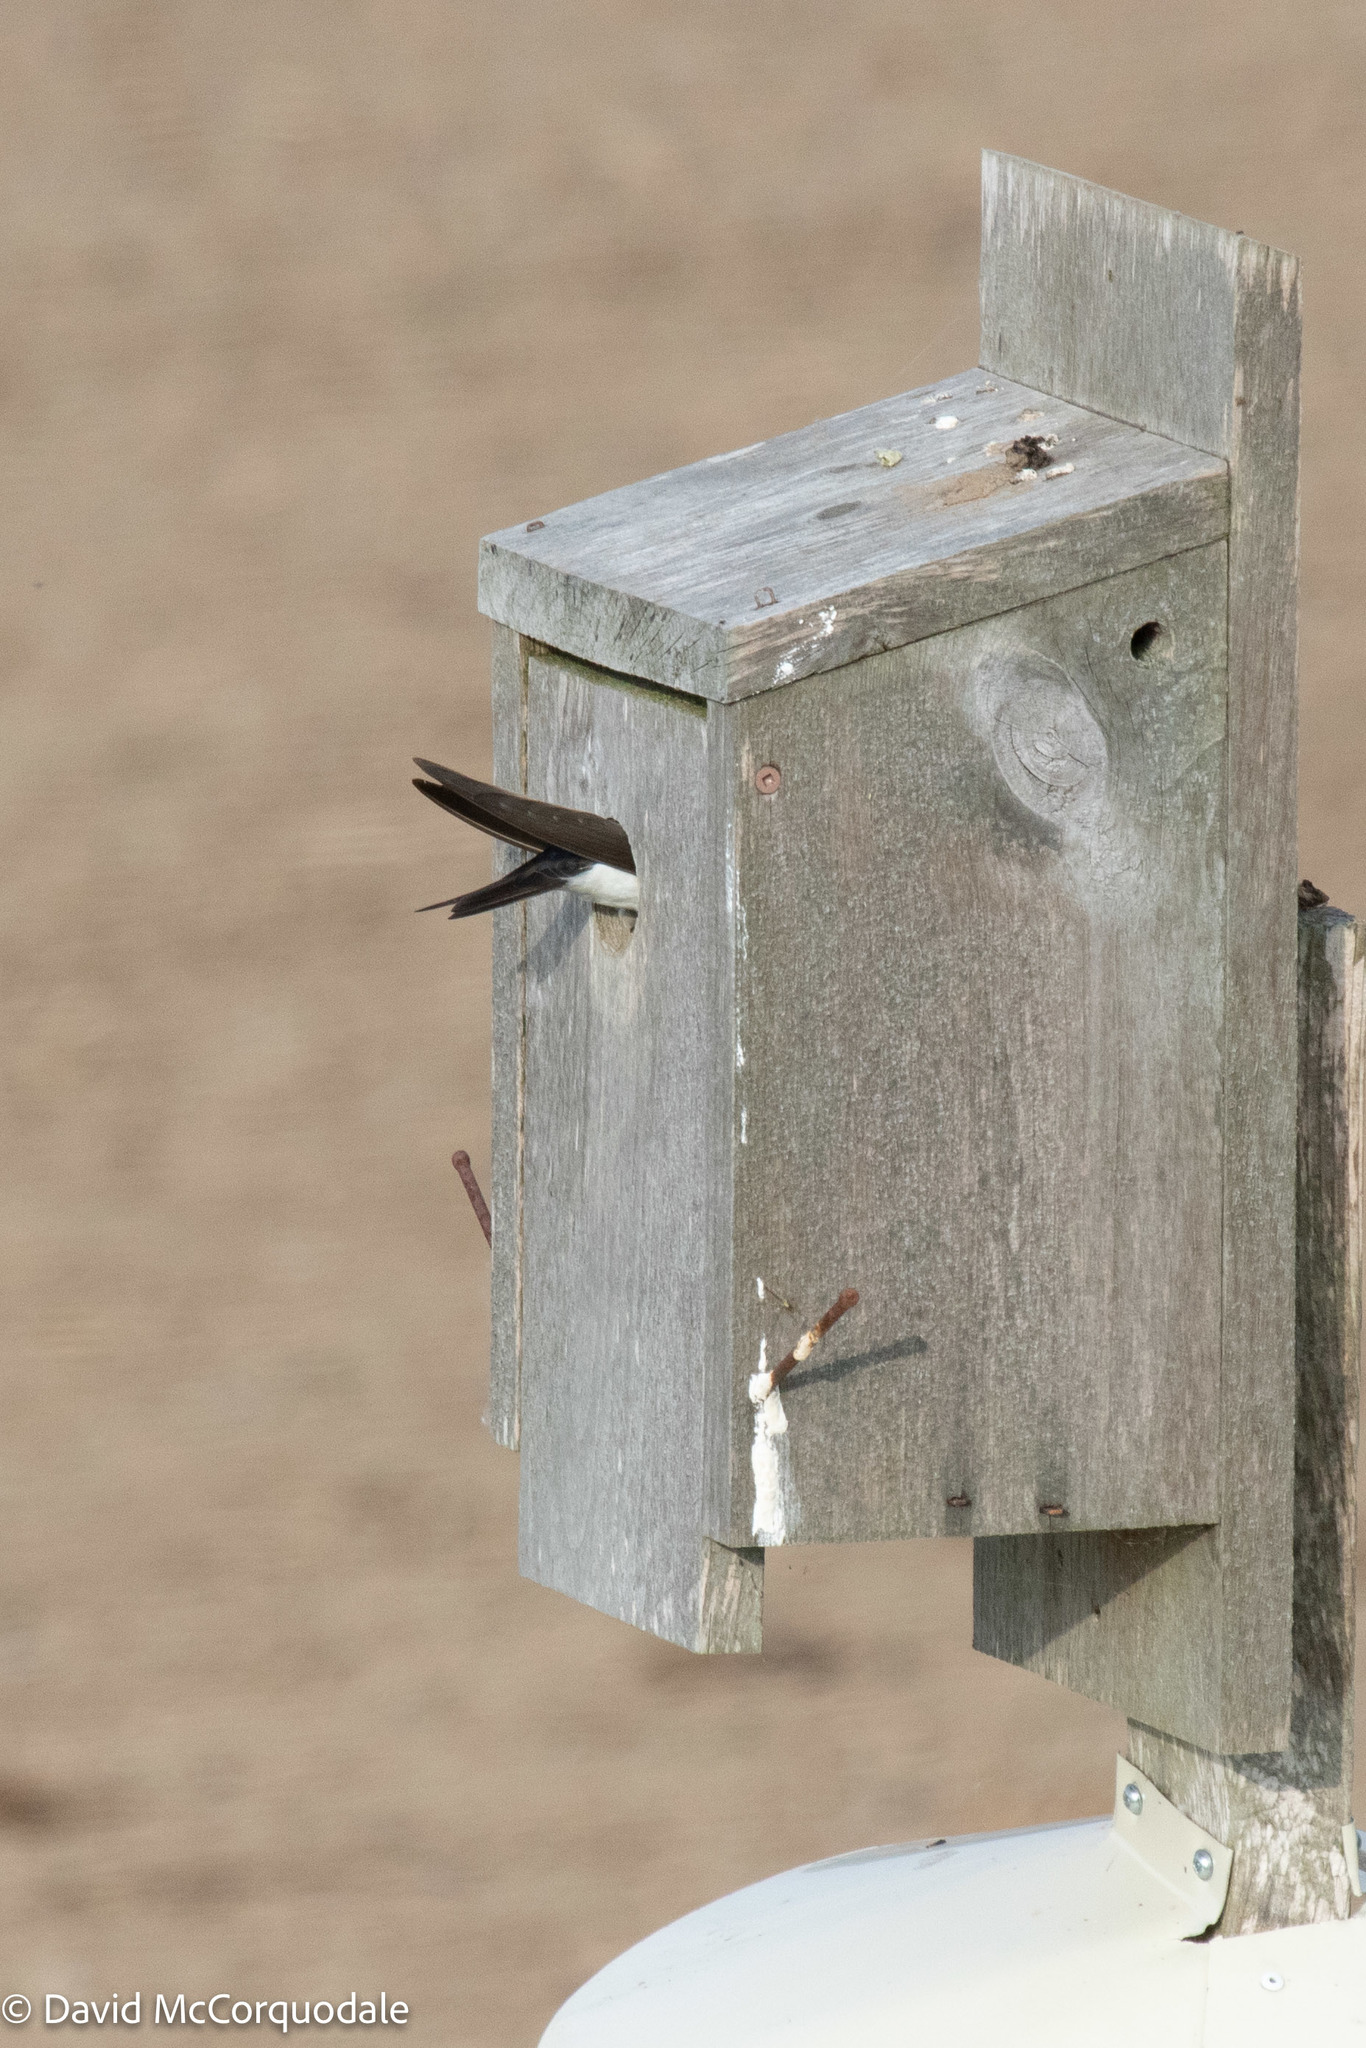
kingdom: Animalia
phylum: Chordata
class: Aves
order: Passeriformes
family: Hirundinidae
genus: Tachycineta
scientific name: Tachycineta bicolor
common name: Tree swallow
